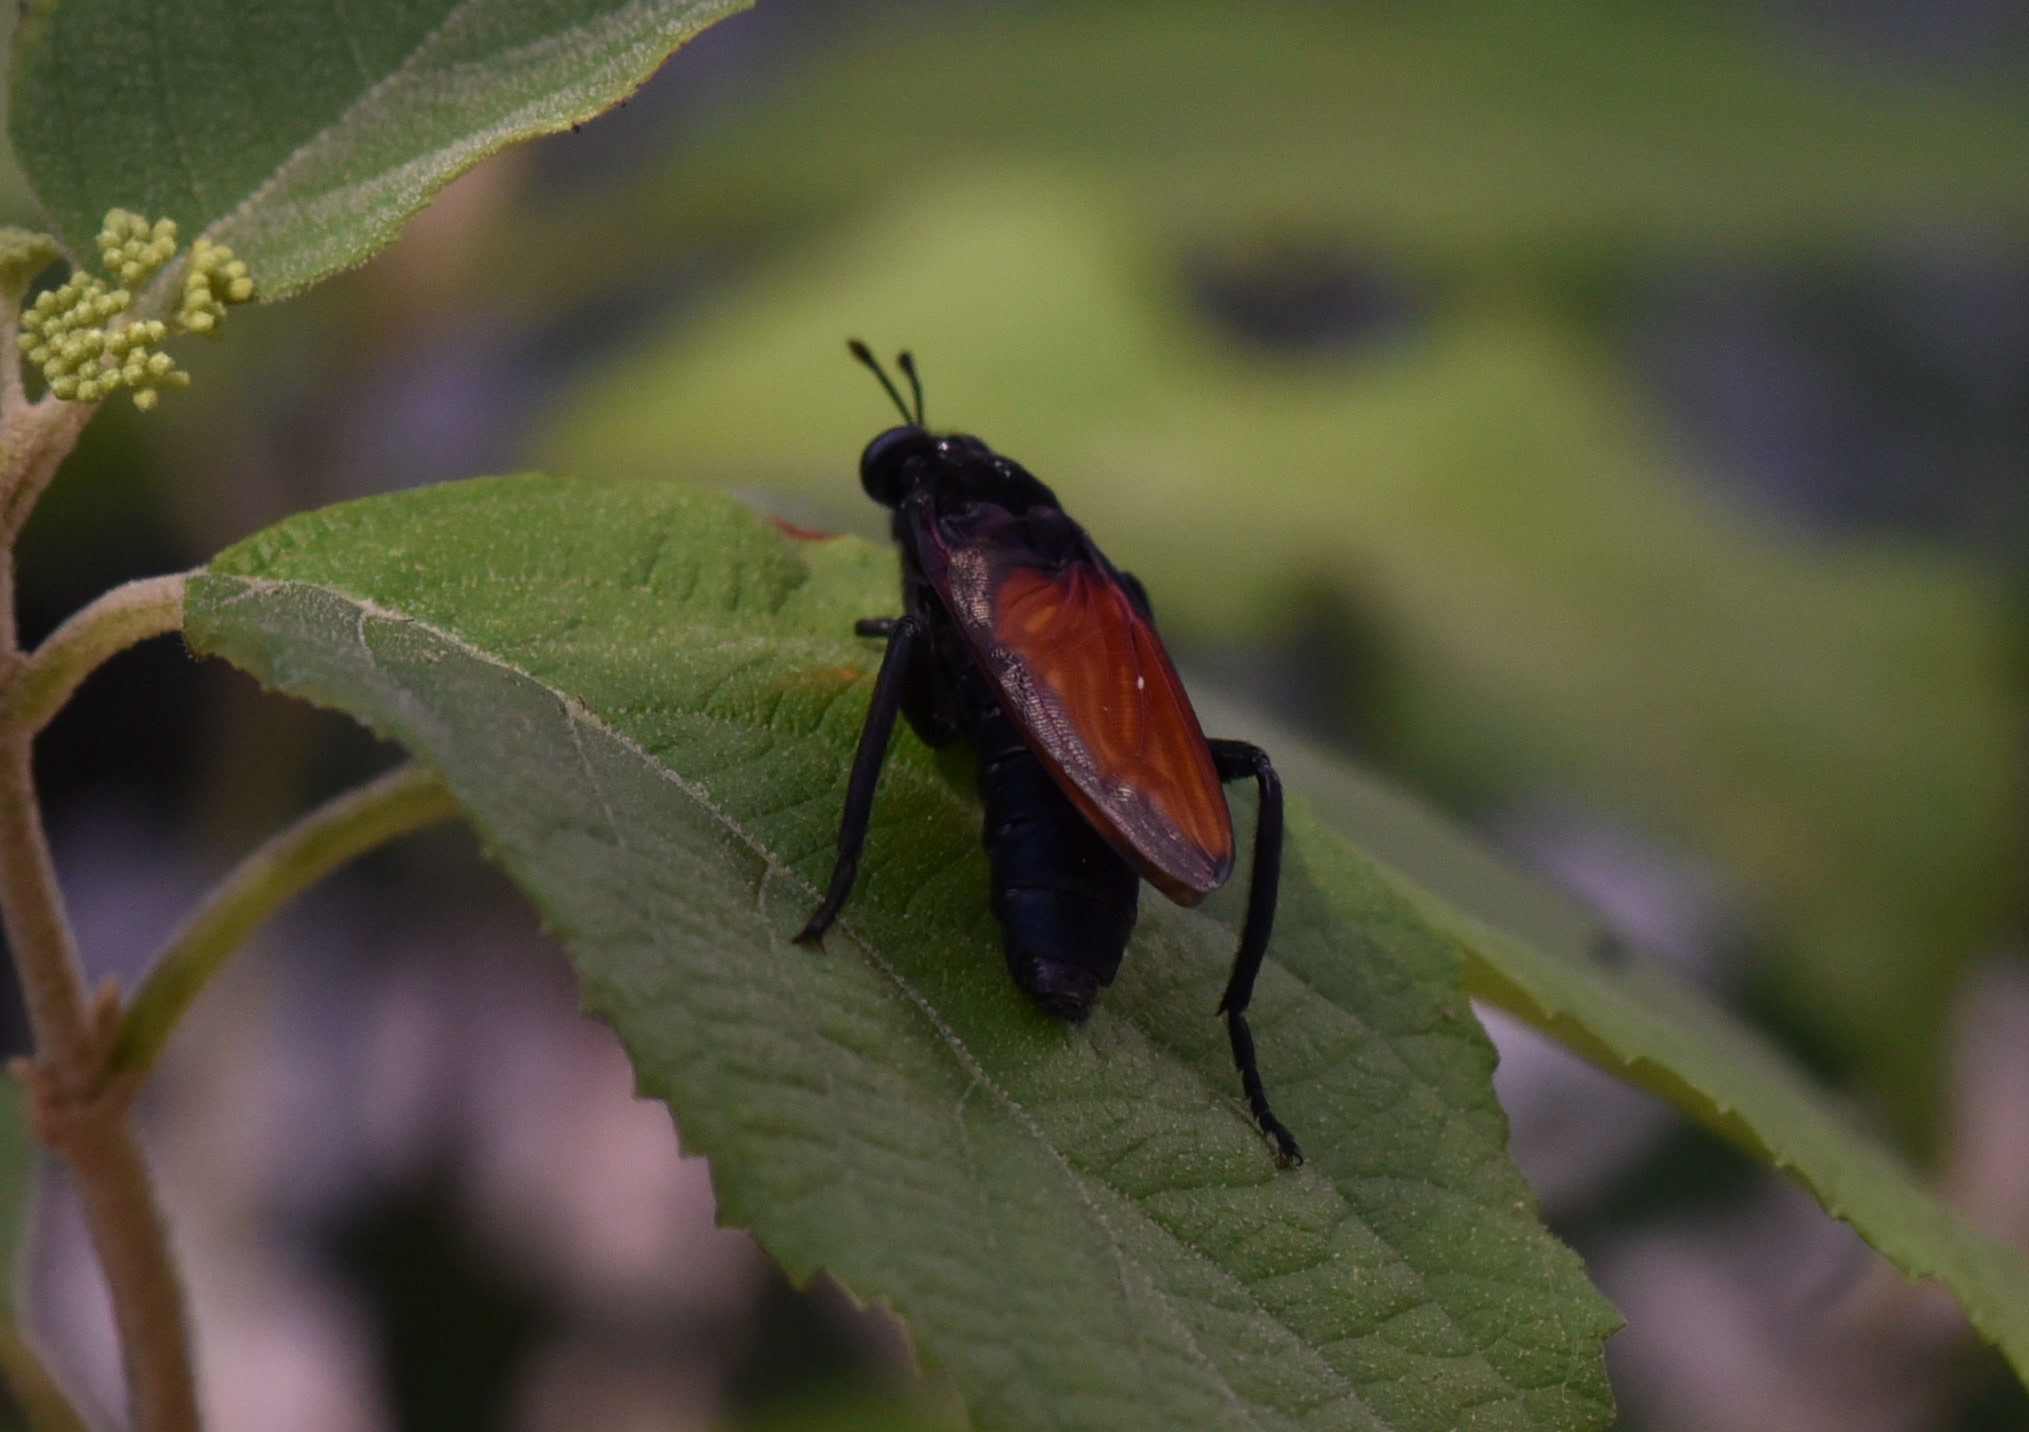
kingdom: Animalia
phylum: Arthropoda
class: Insecta
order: Diptera
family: Mydidae
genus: Mydas
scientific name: Mydas xanthopterus
